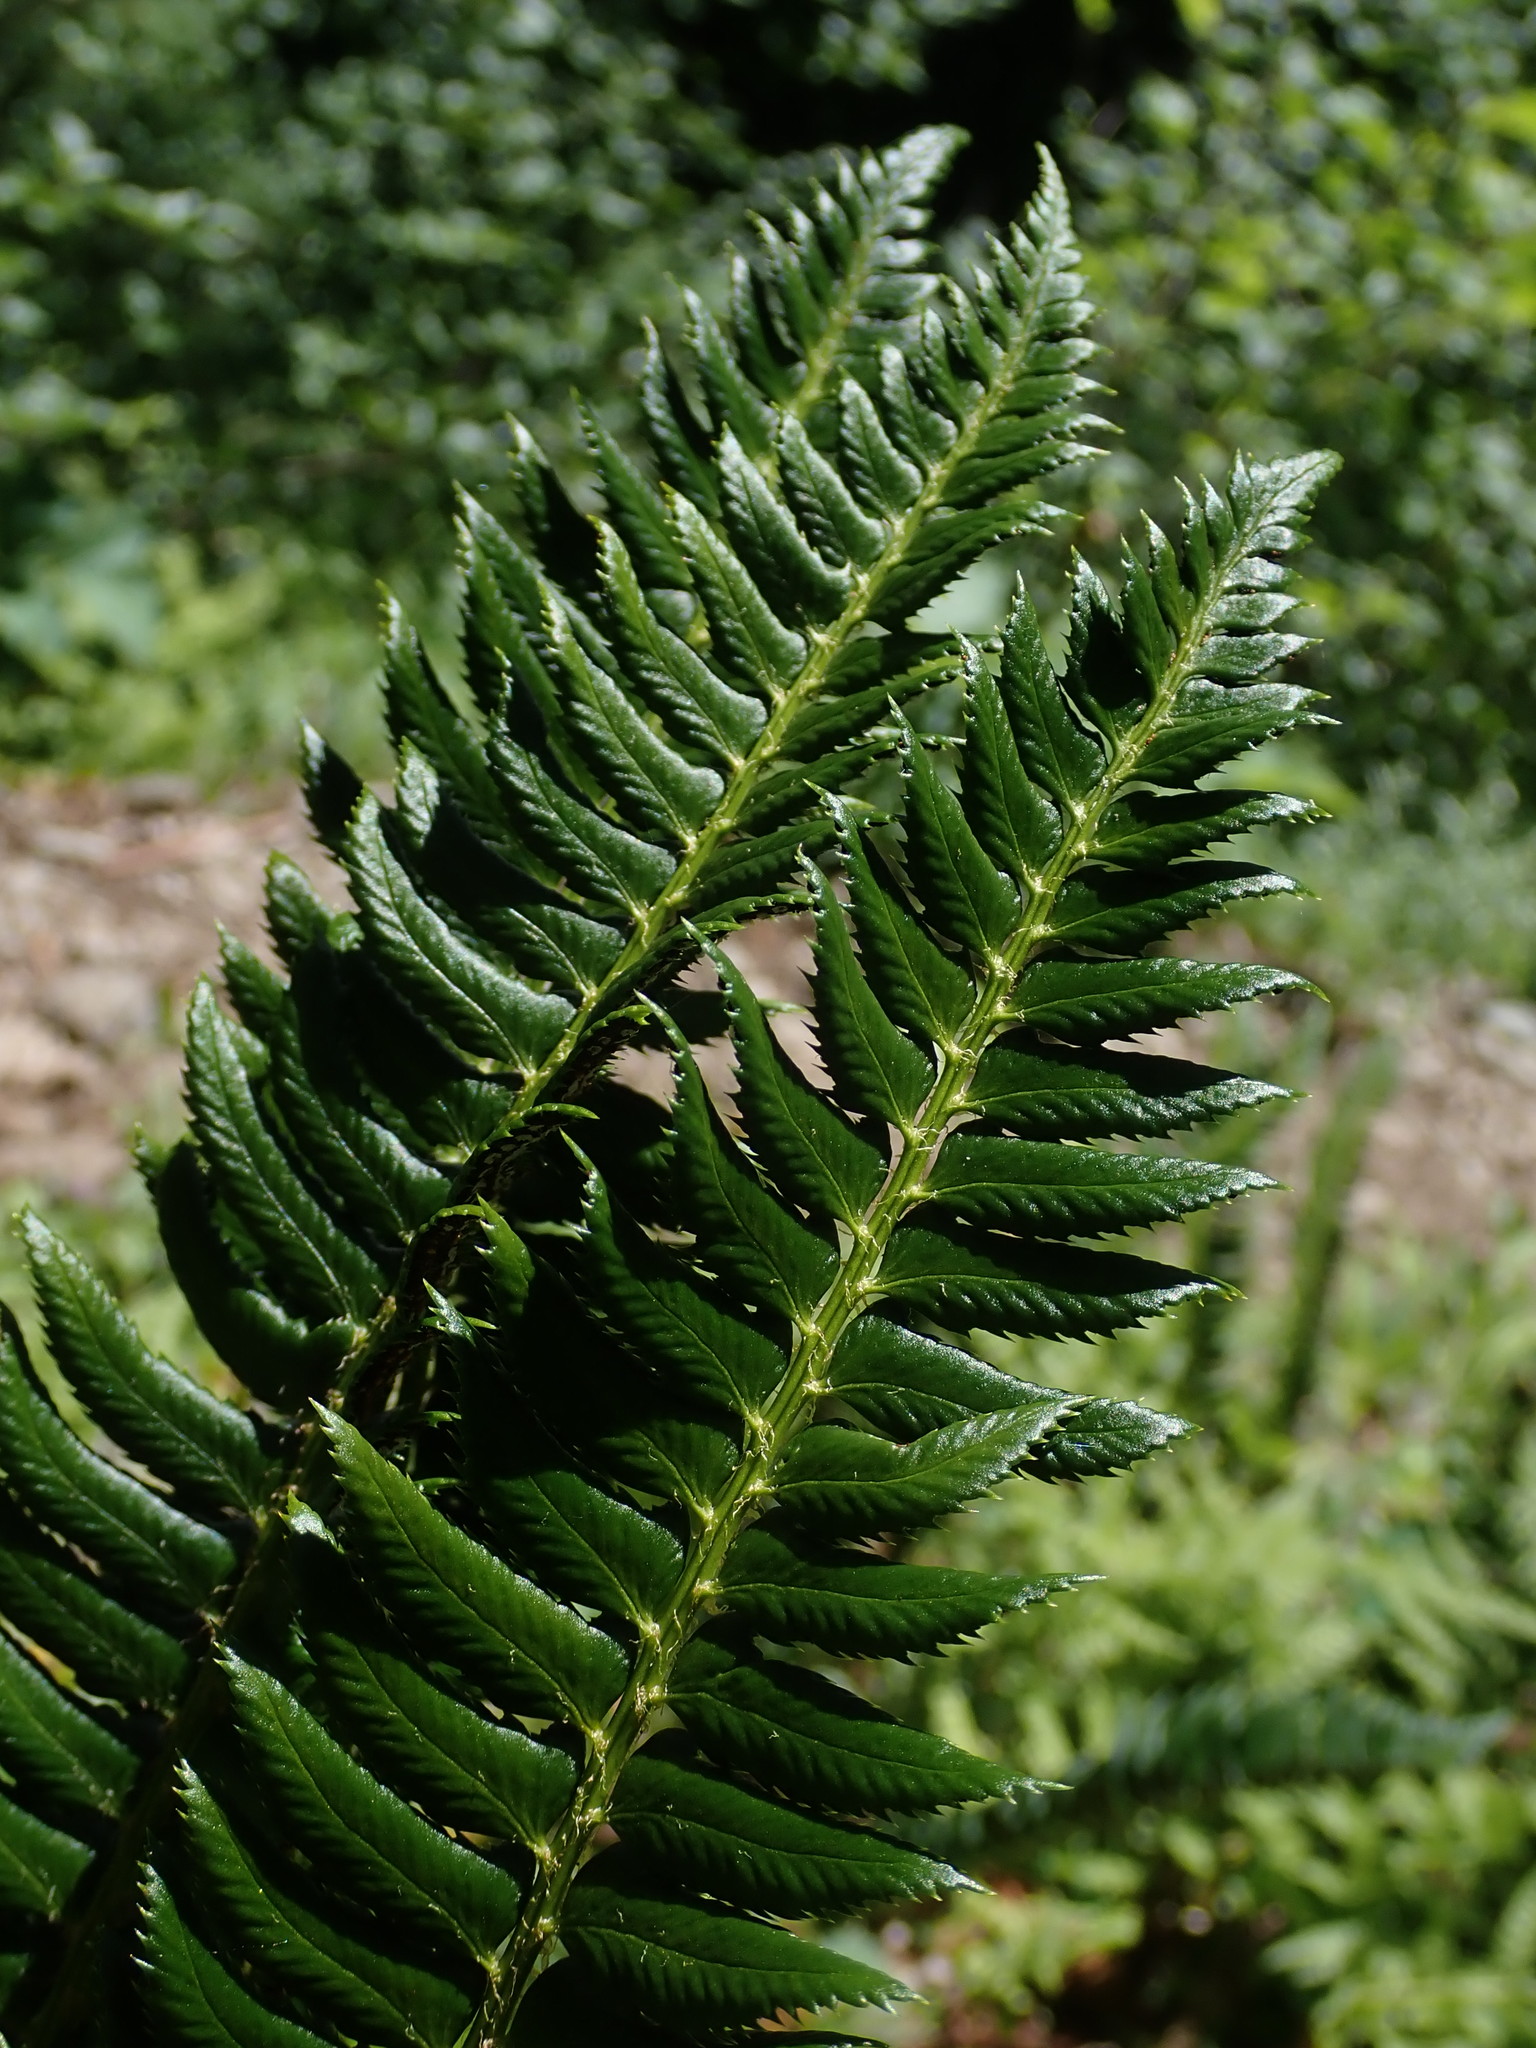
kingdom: Plantae
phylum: Tracheophyta
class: Polypodiopsida
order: Polypodiales
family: Dryopteridaceae
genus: Polystichum
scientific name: Polystichum lonchitis
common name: Holly fern
